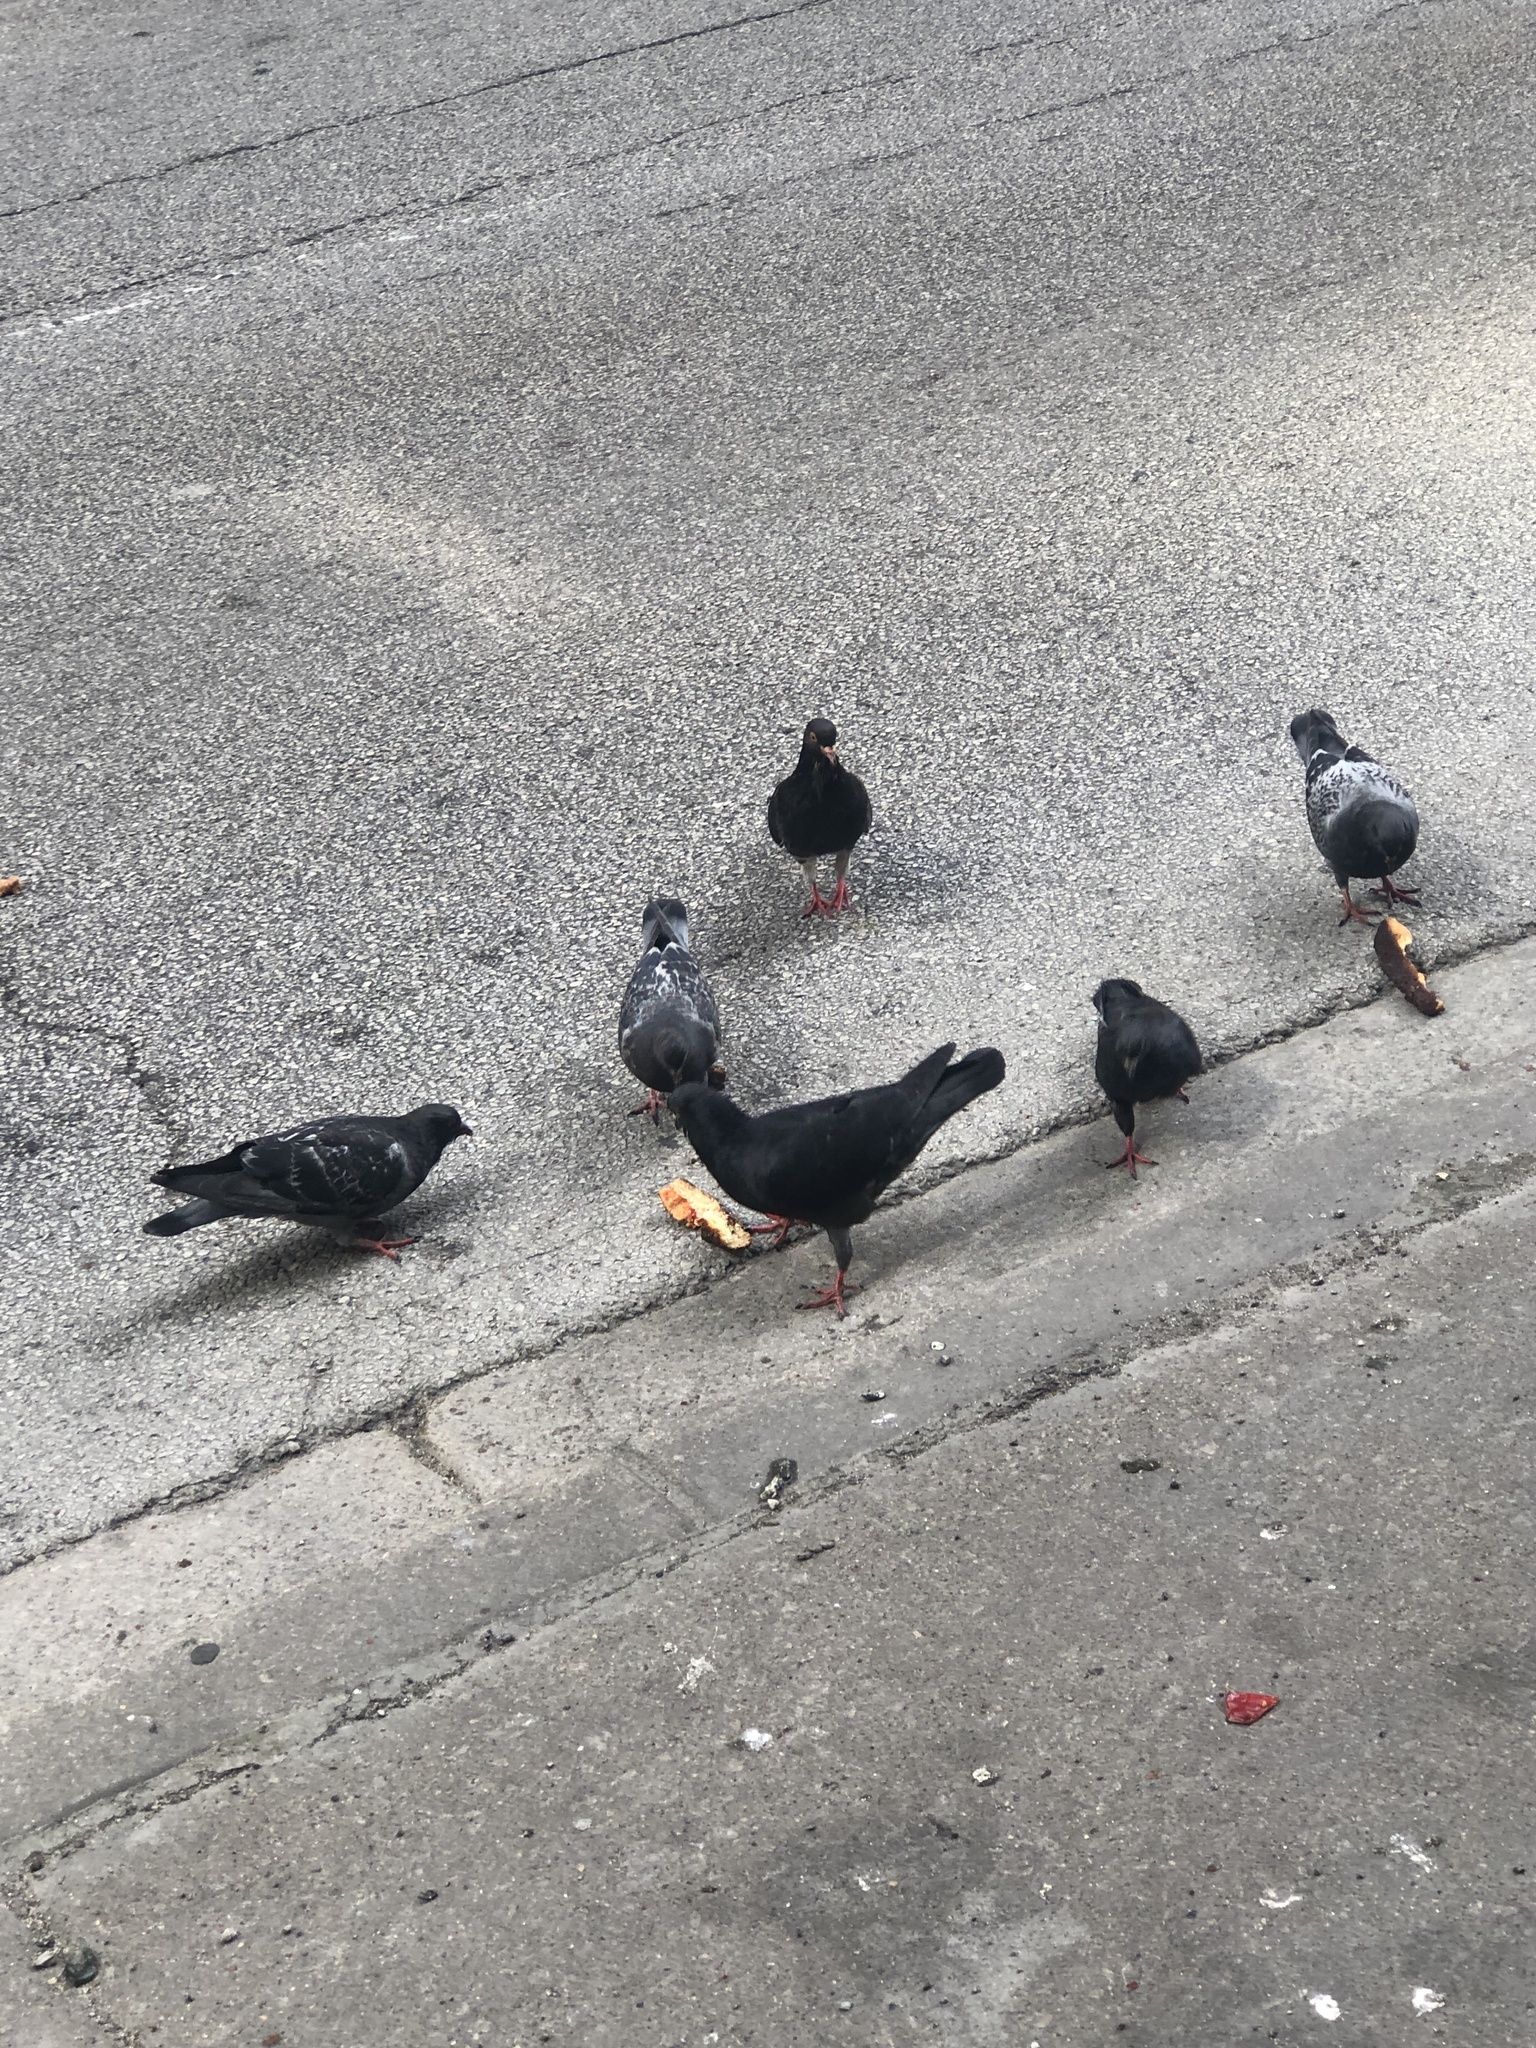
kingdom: Animalia
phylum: Chordata
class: Aves
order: Columbiformes
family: Columbidae
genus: Columba
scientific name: Columba livia
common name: Rock pigeon
